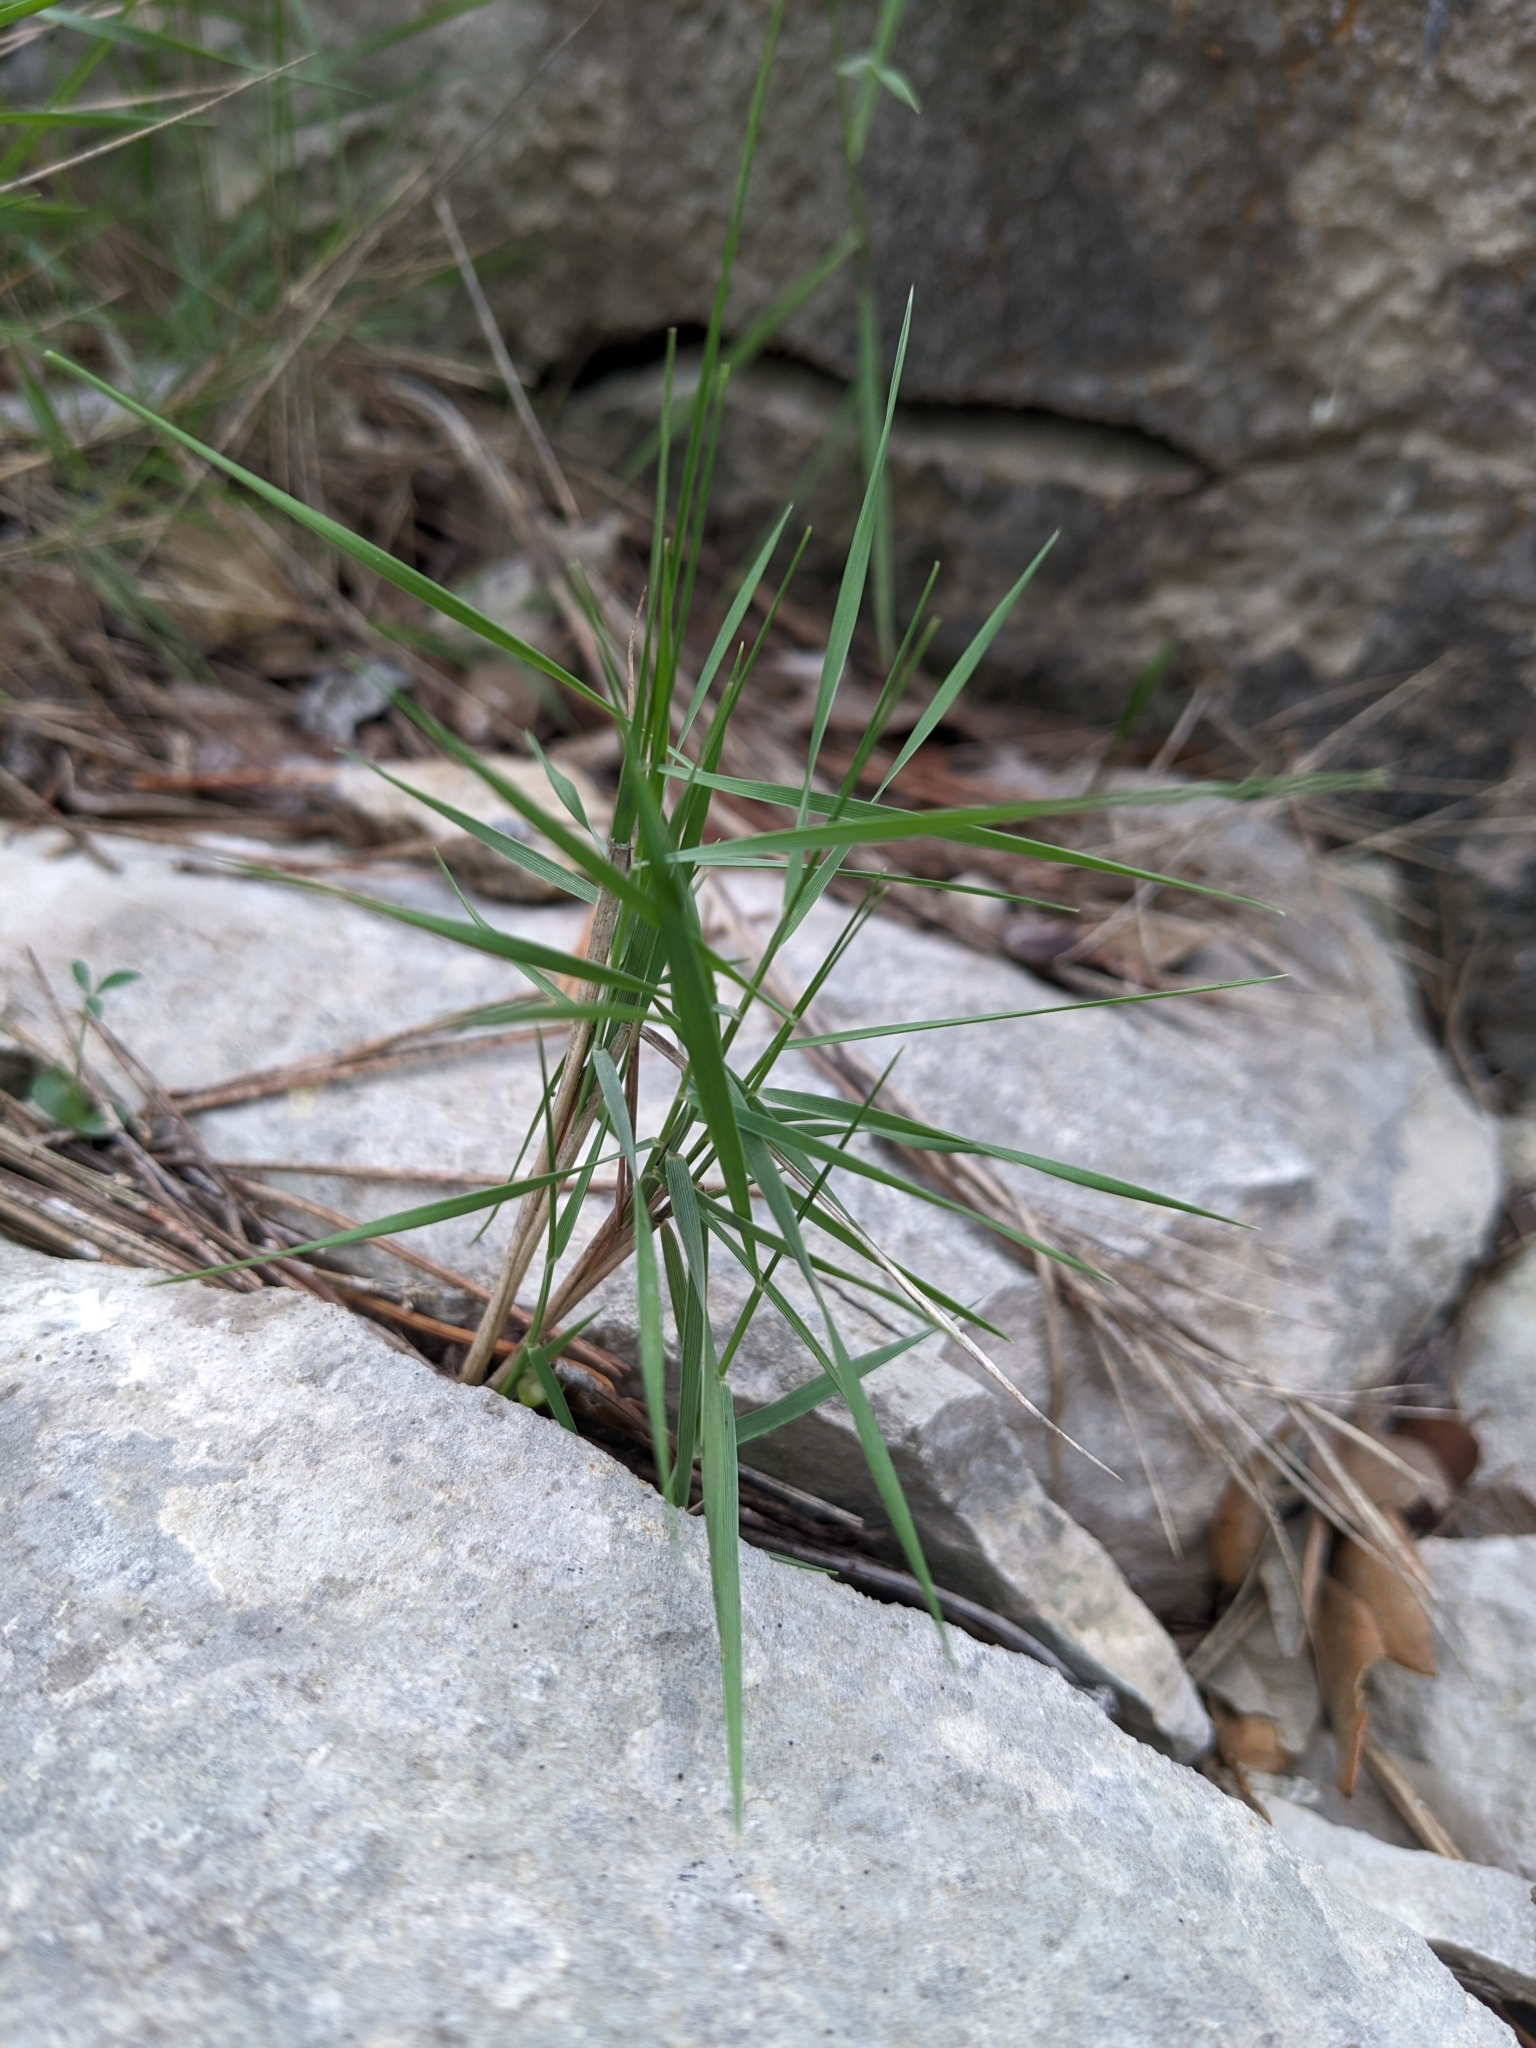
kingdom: Plantae
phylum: Tracheophyta
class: Liliopsida
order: Poales
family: Poaceae
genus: Brachypodium
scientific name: Brachypodium retusum
